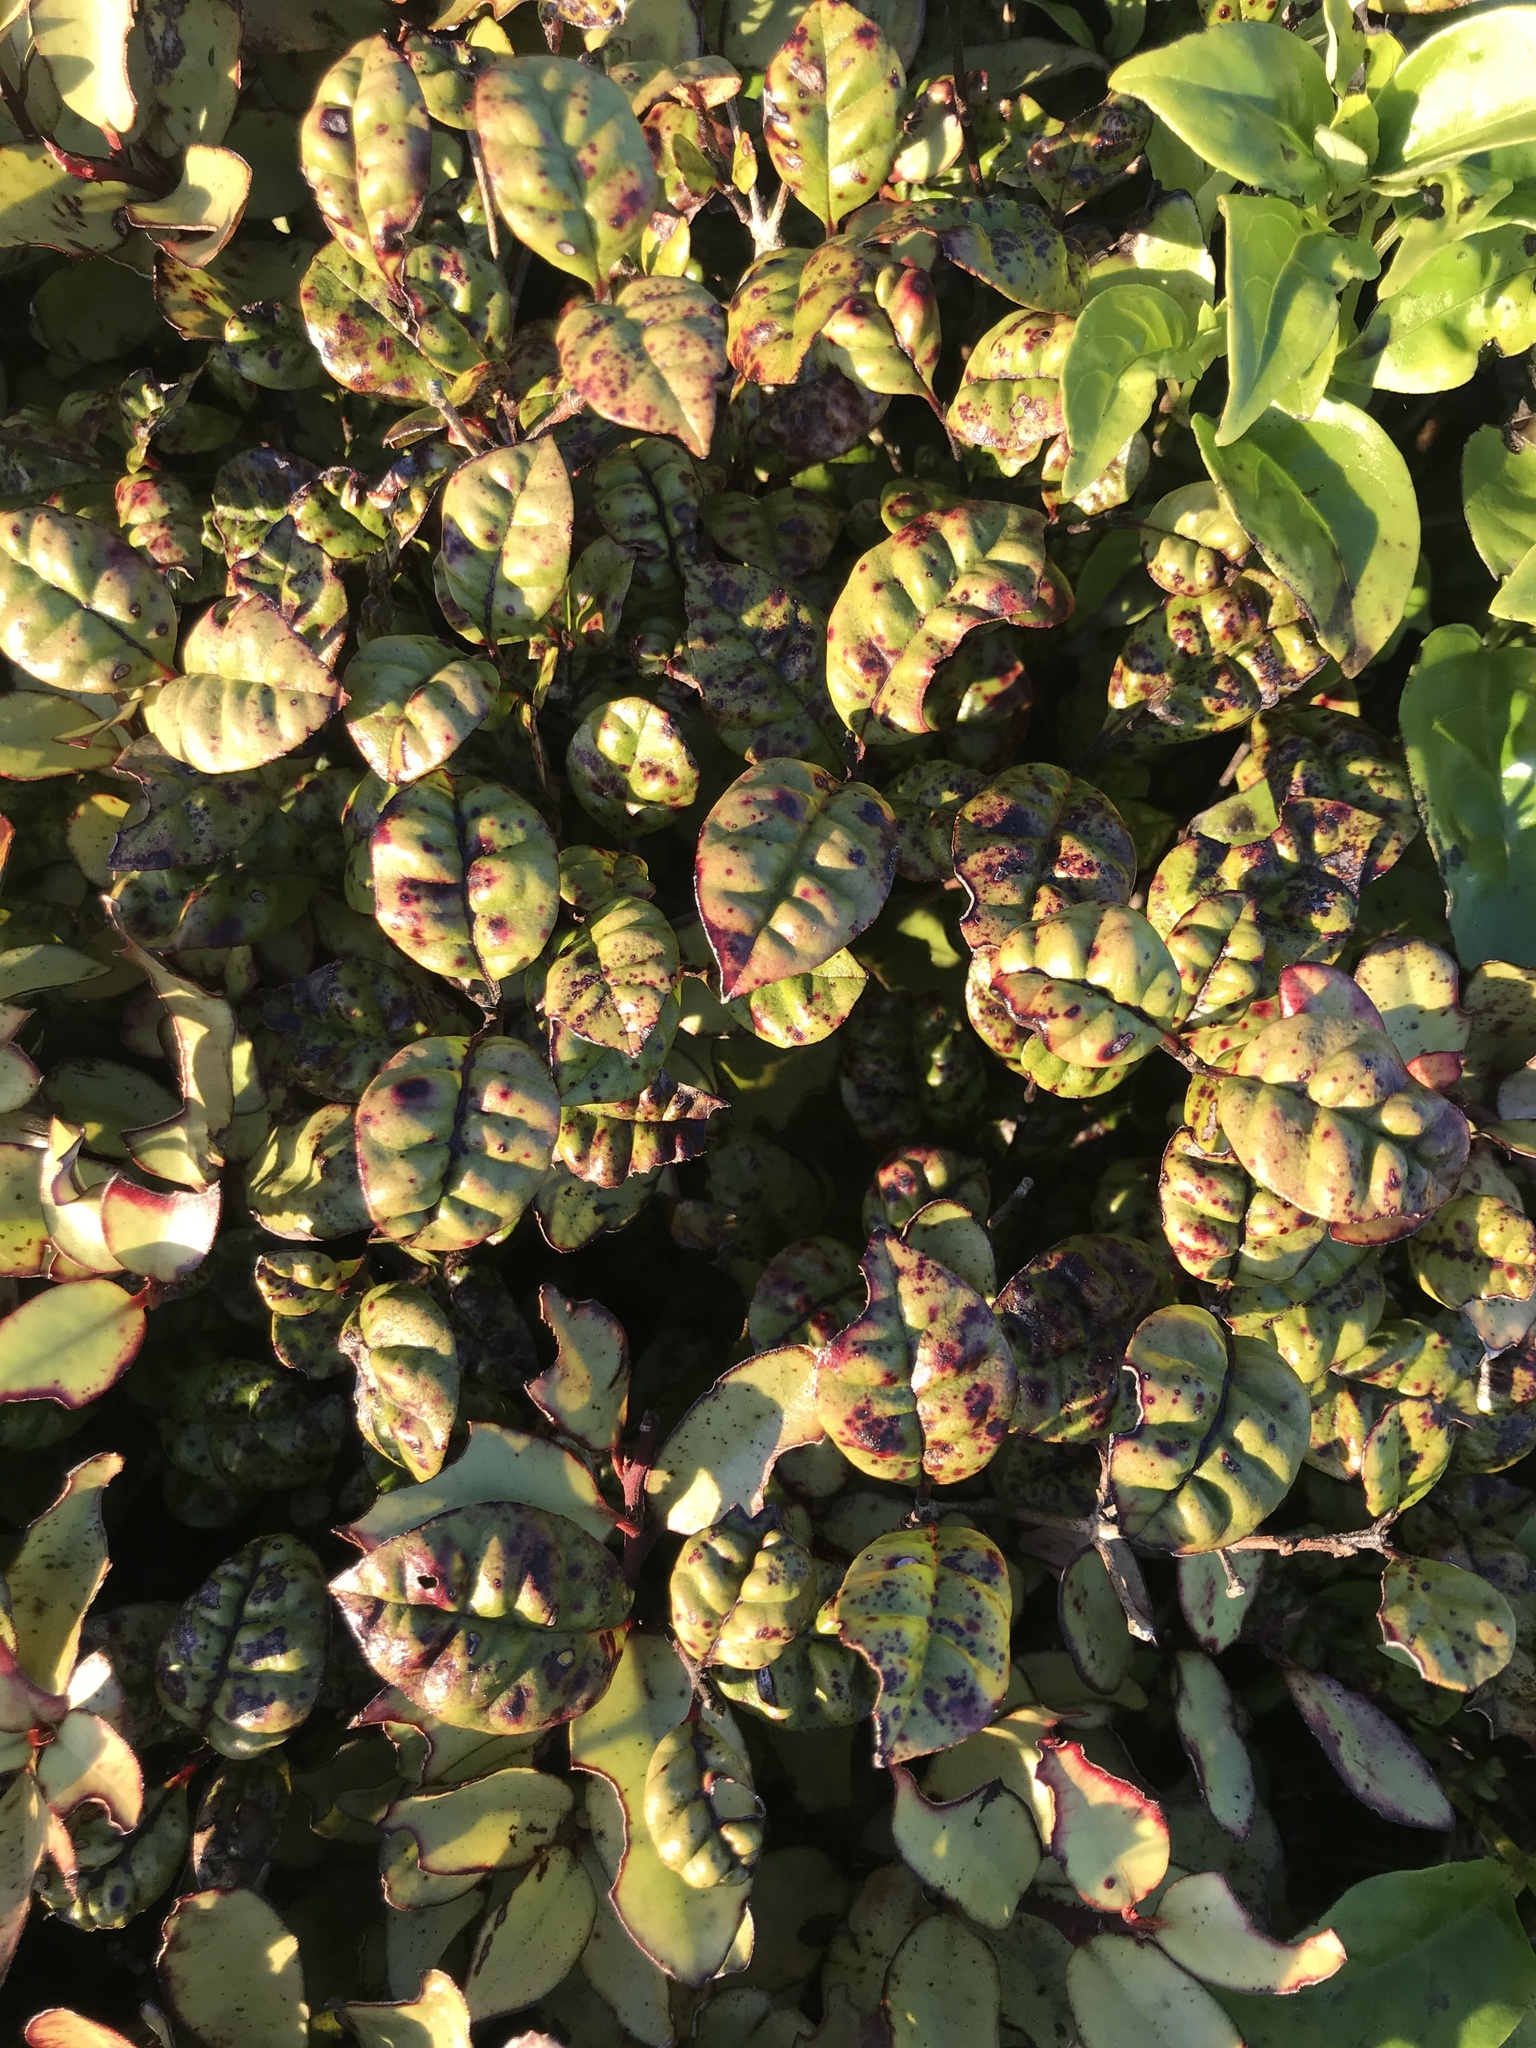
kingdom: Plantae
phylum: Tracheophyta
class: Magnoliopsida
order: Myrtales
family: Myrtaceae
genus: Lophomyrtus
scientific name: Lophomyrtus bullata
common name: Rama rama
